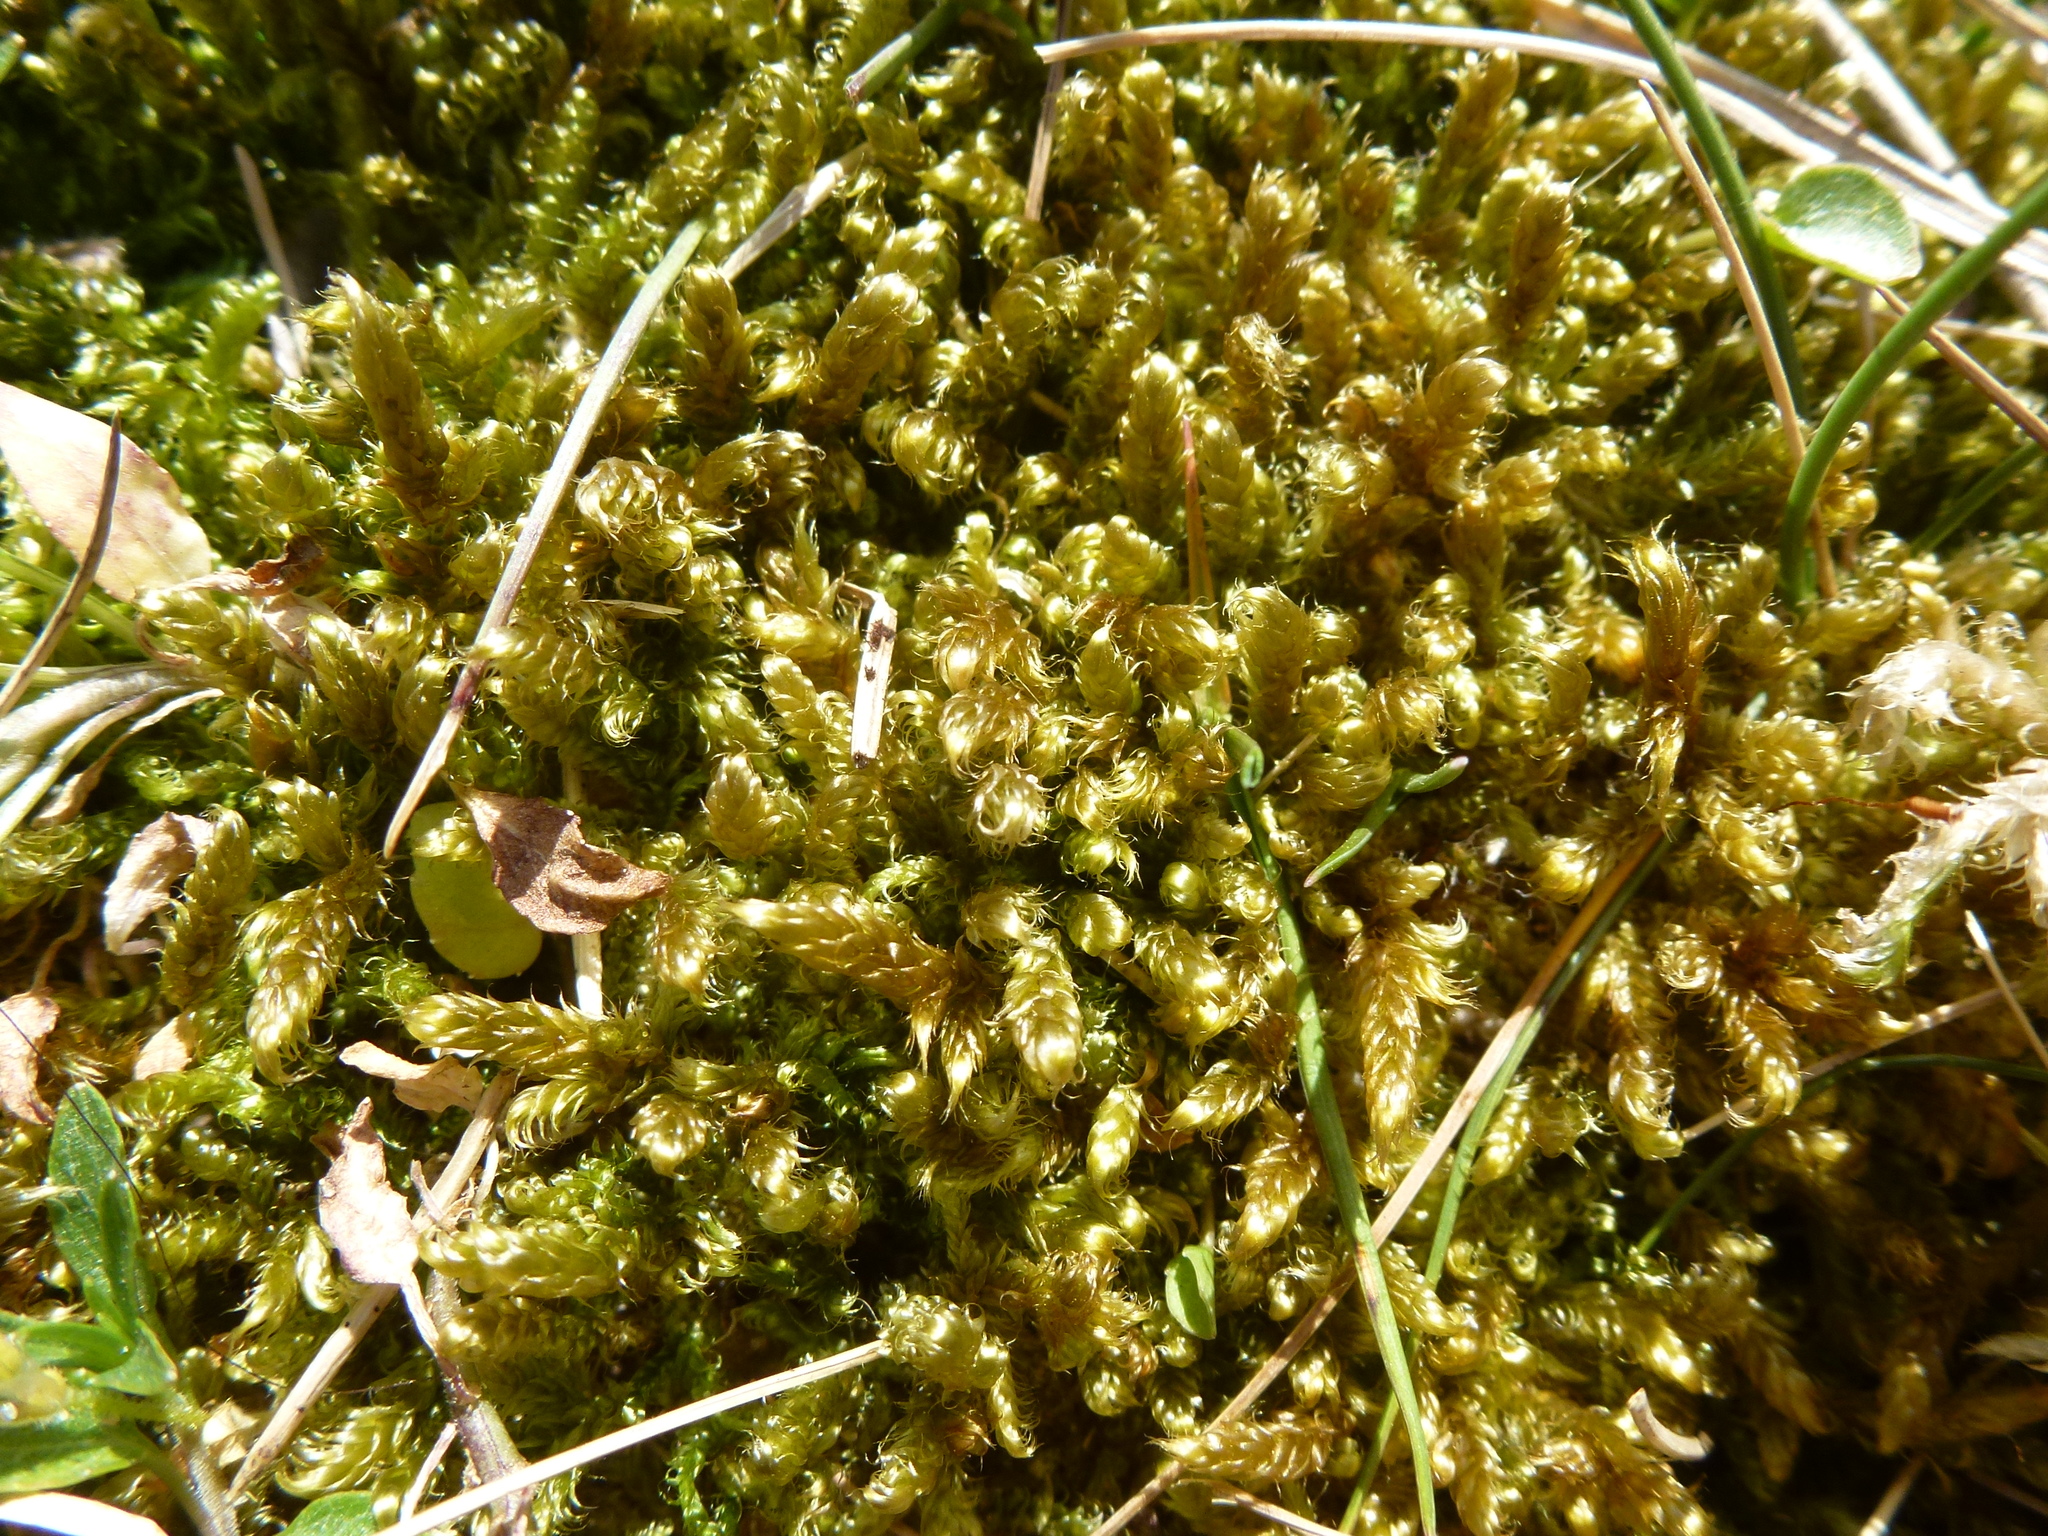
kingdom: Plantae
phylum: Bryophyta
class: Bryopsida
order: Hypnales
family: Hypnaceae
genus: Hypnum
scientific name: Hypnum cupressiforme
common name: Cypress-leaved plait-moss
